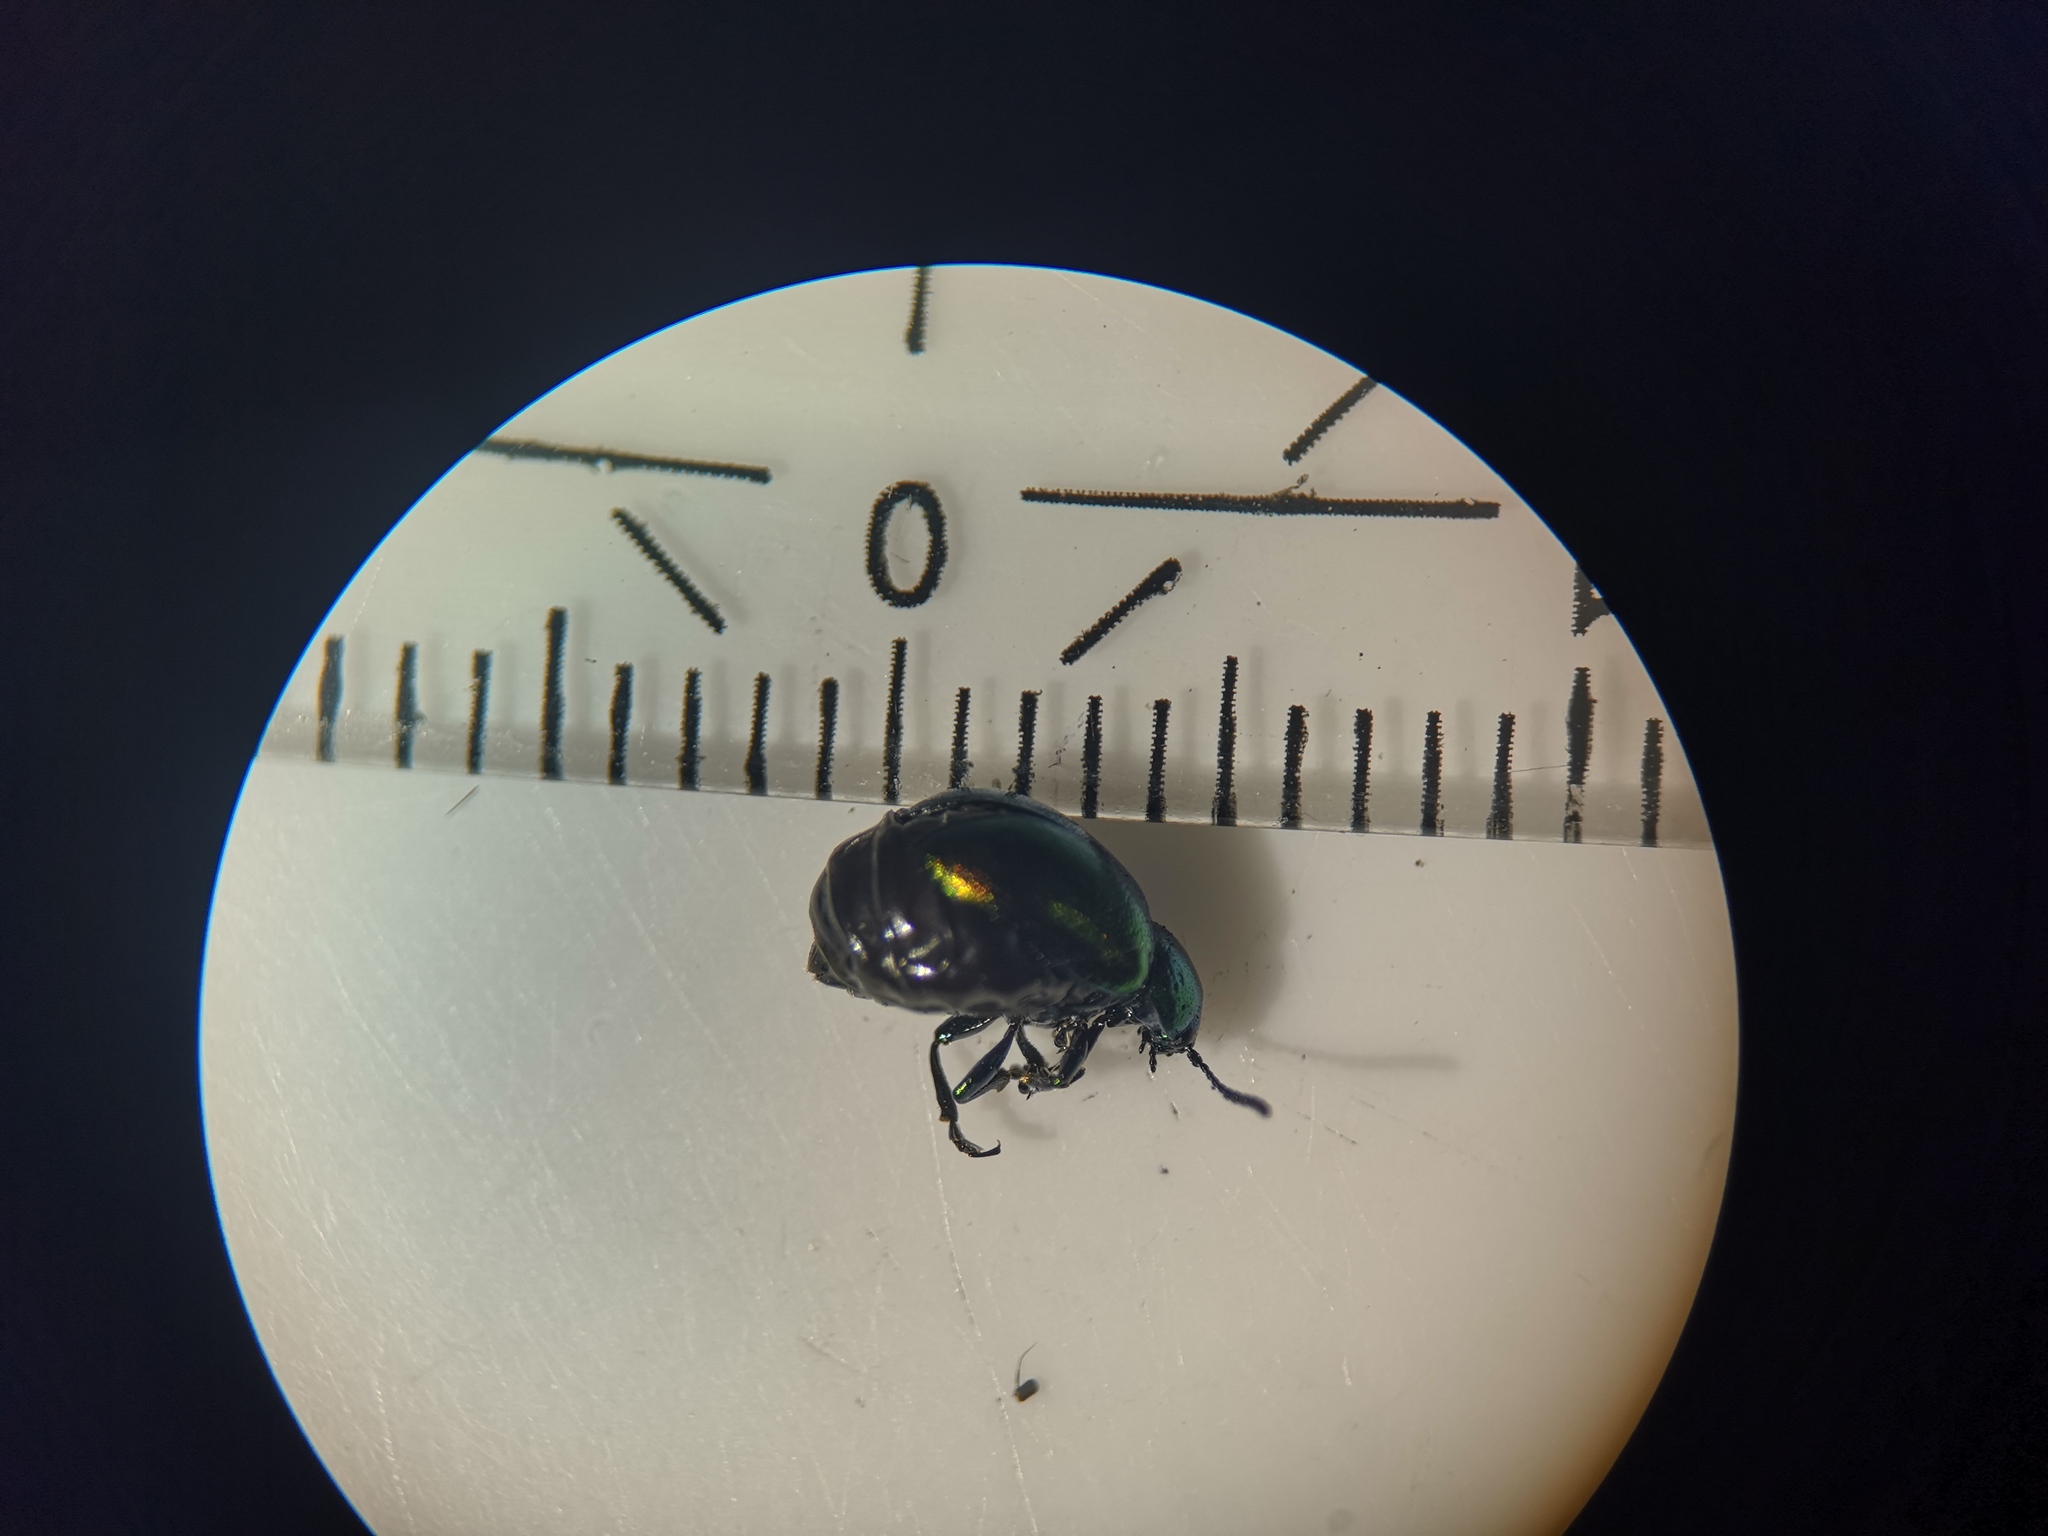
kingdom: Animalia
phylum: Arthropoda
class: Insecta
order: Coleoptera
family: Chrysomelidae
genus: Gastrophysa
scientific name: Gastrophysa viridula
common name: Green dock beetle
